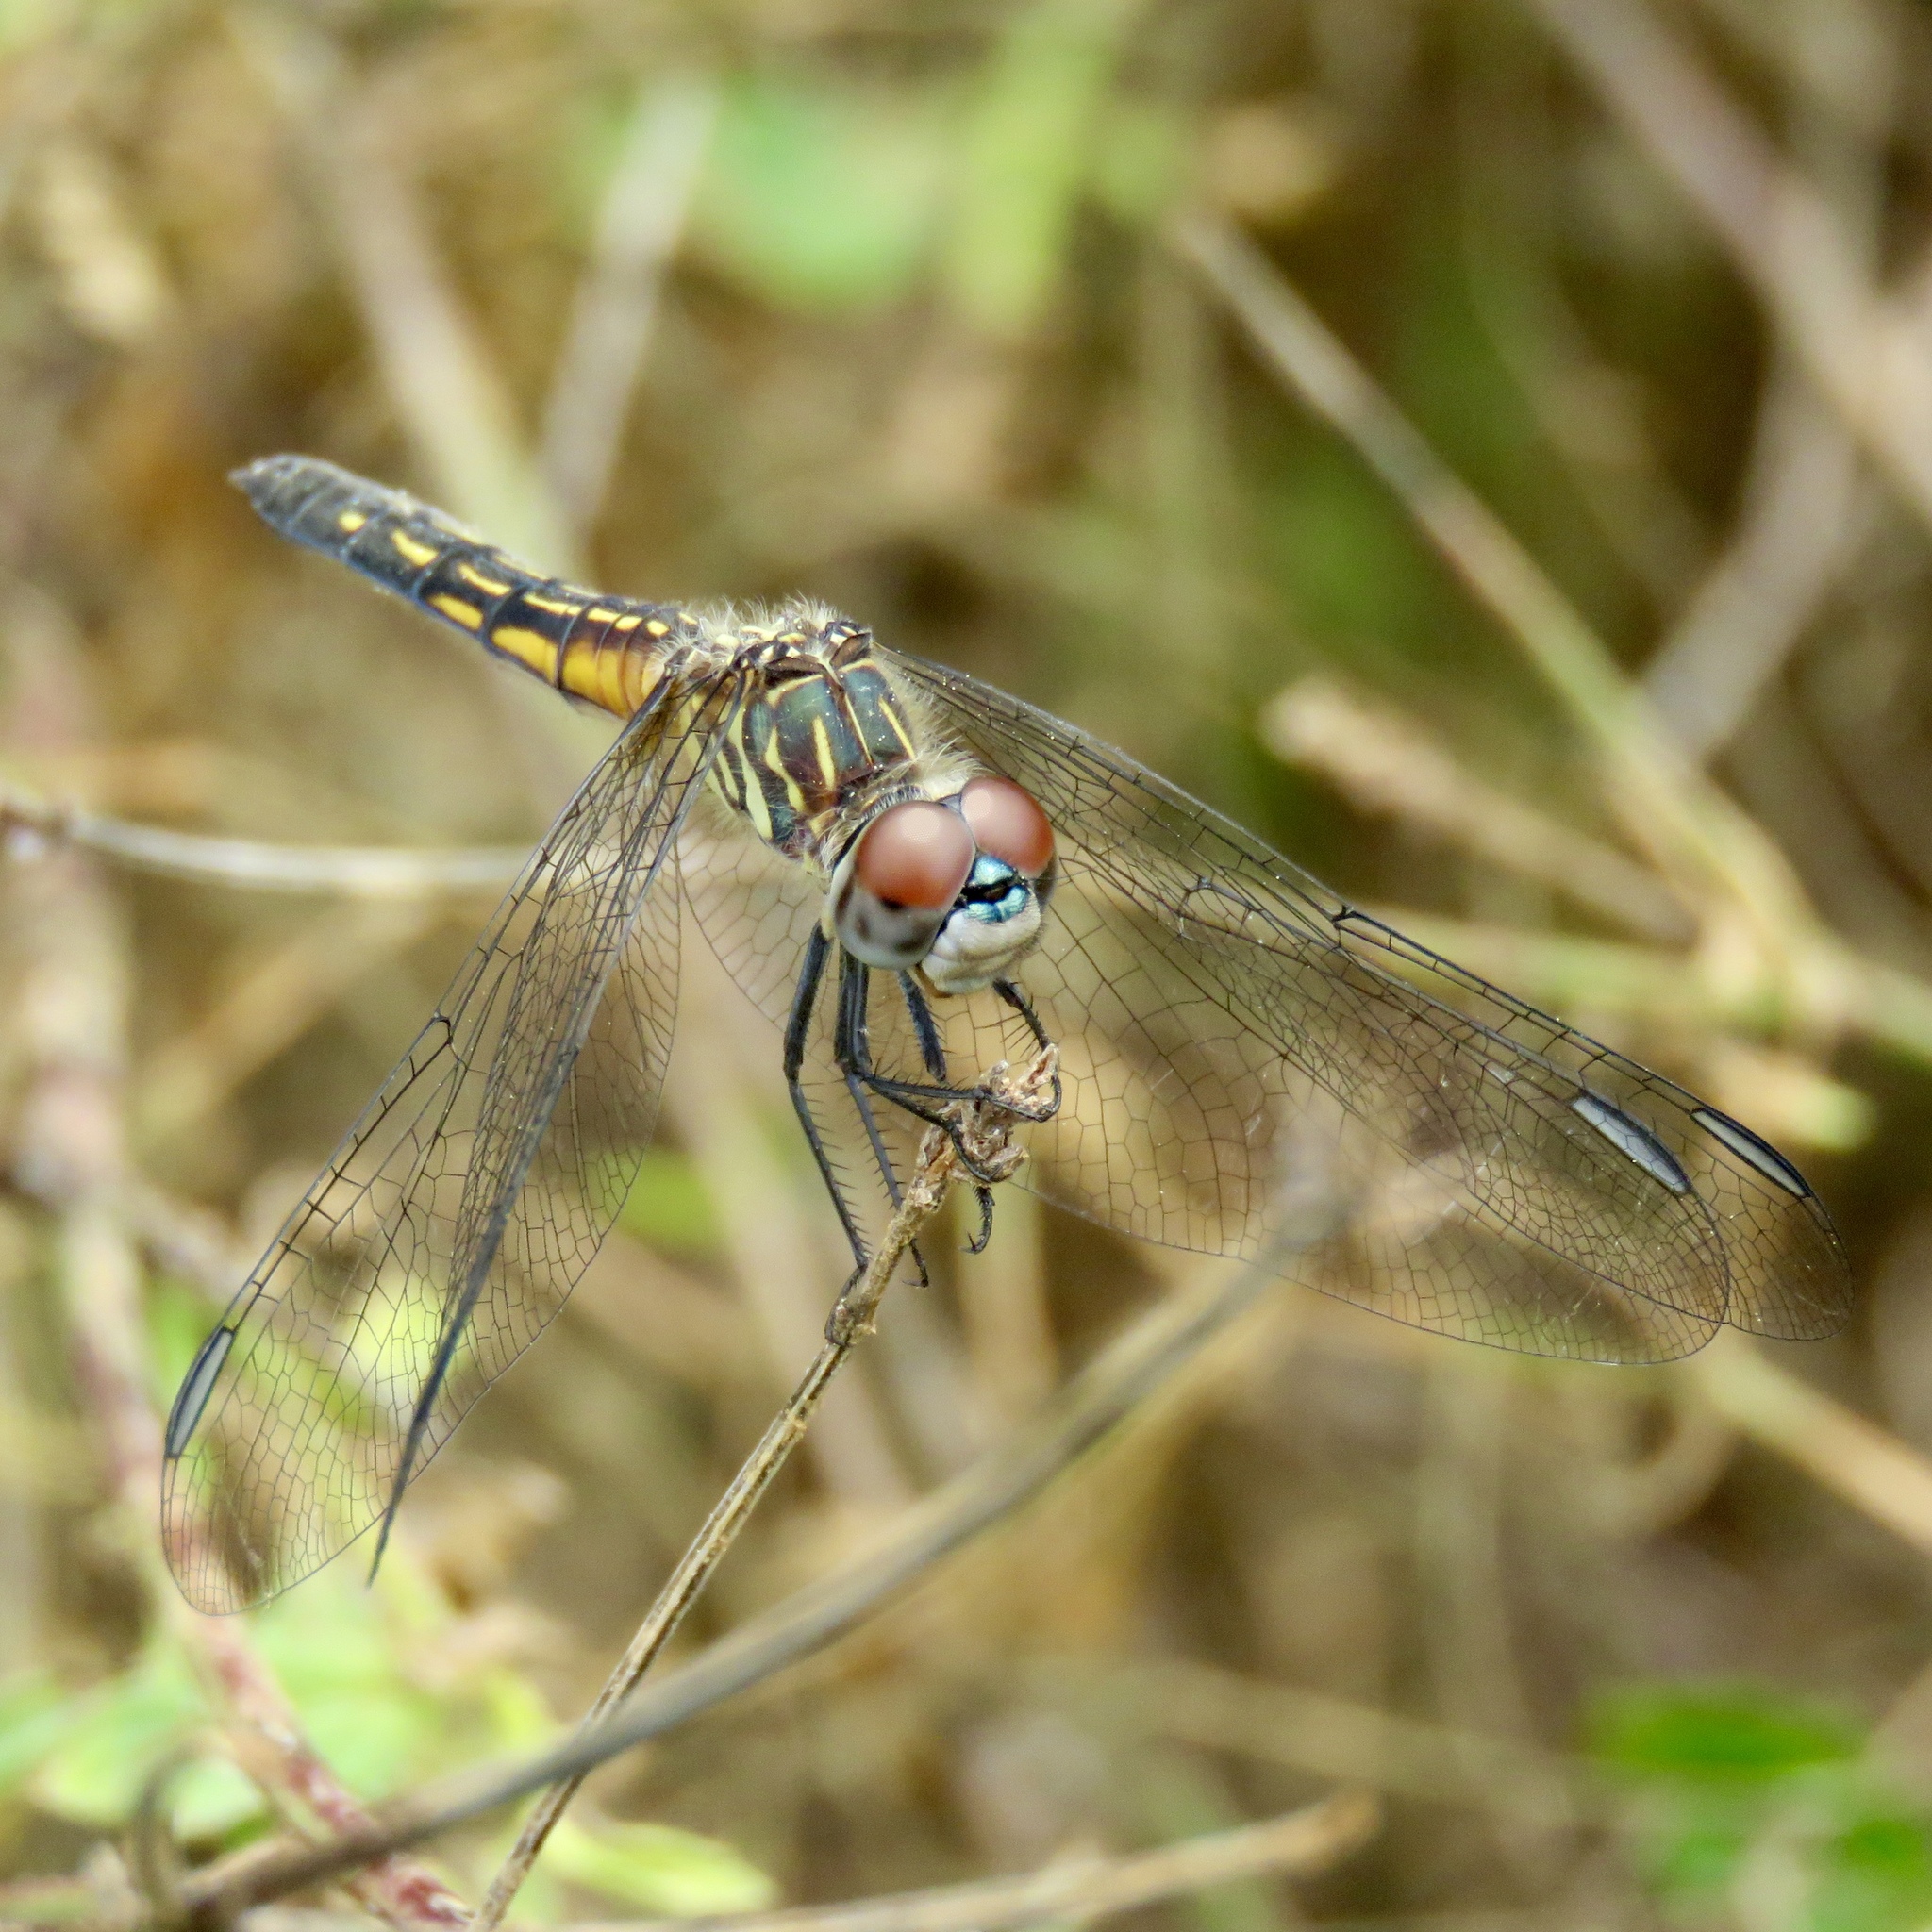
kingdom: Animalia
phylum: Arthropoda
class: Insecta
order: Odonata
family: Libellulidae
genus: Pachydiplax
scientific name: Pachydiplax longipennis
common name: Blue dasher
